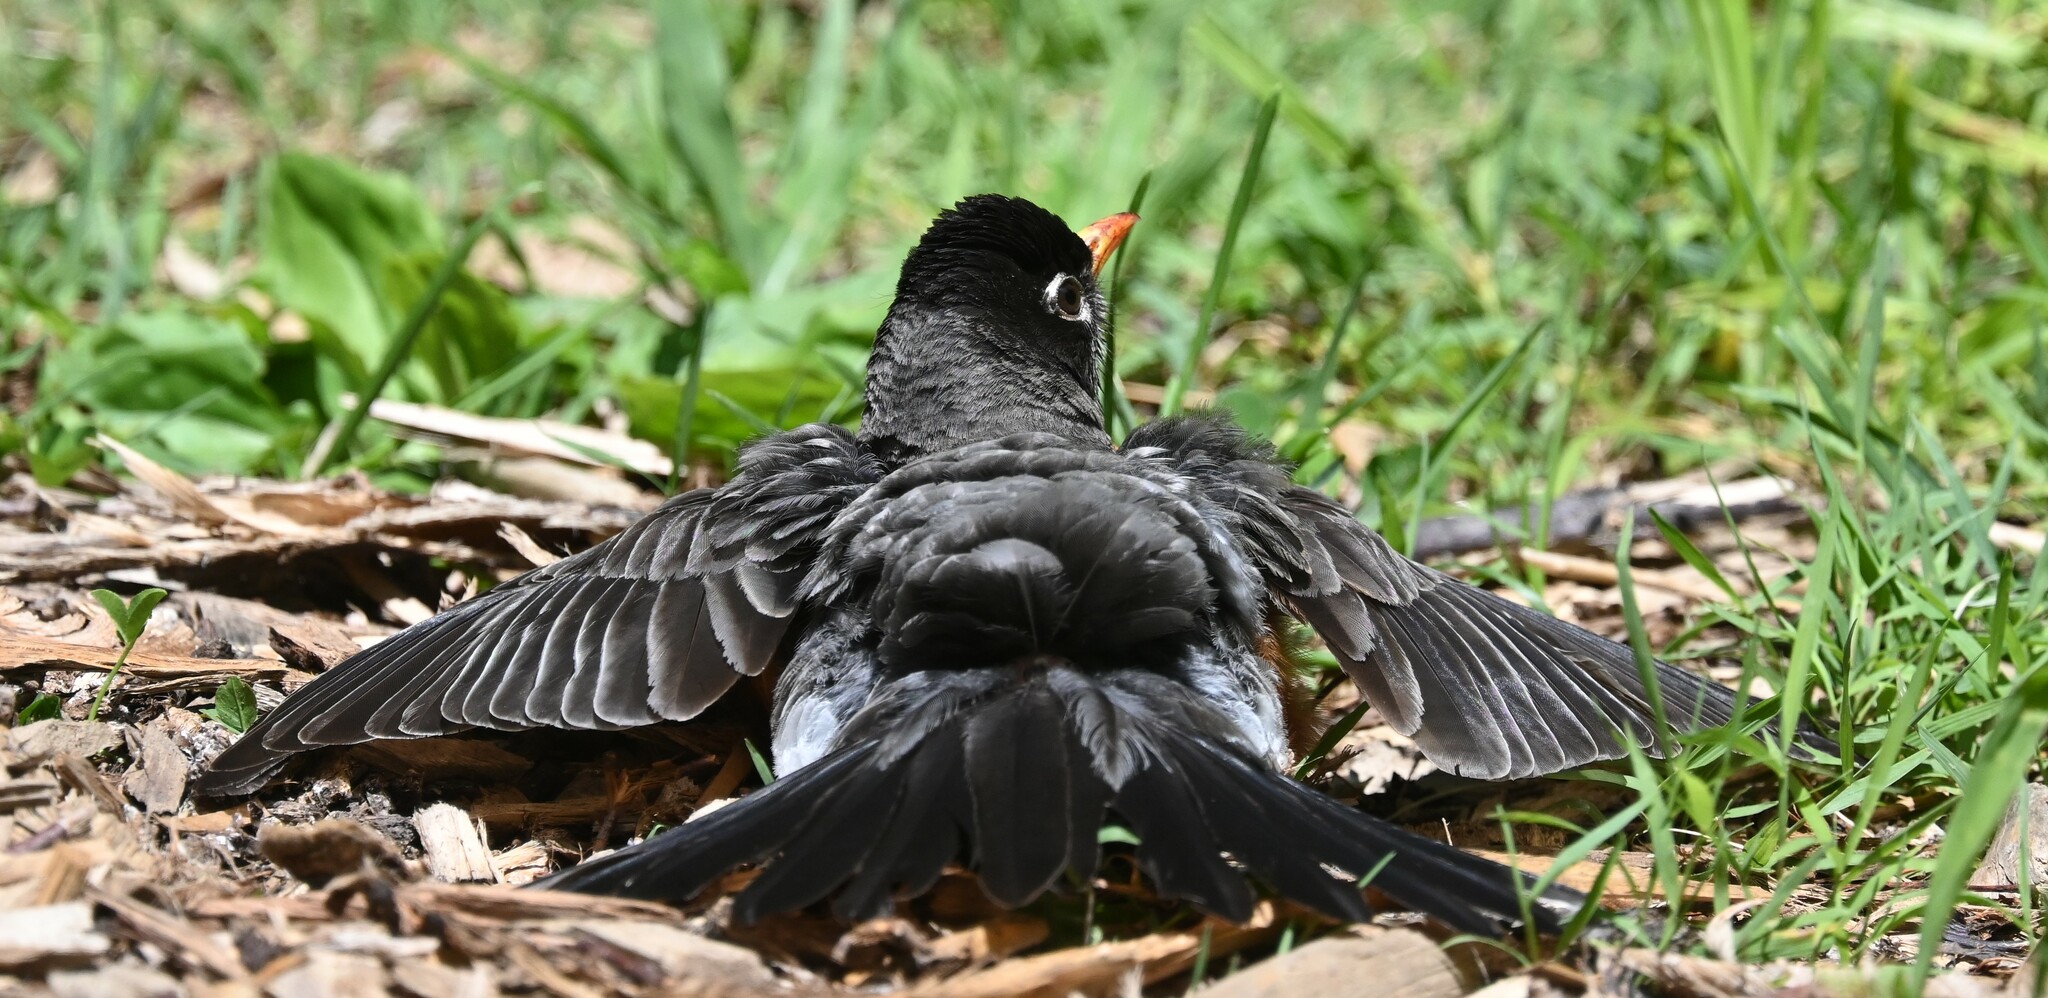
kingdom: Animalia
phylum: Chordata
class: Aves
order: Passeriformes
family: Turdidae
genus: Turdus
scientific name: Turdus migratorius
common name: American robin
